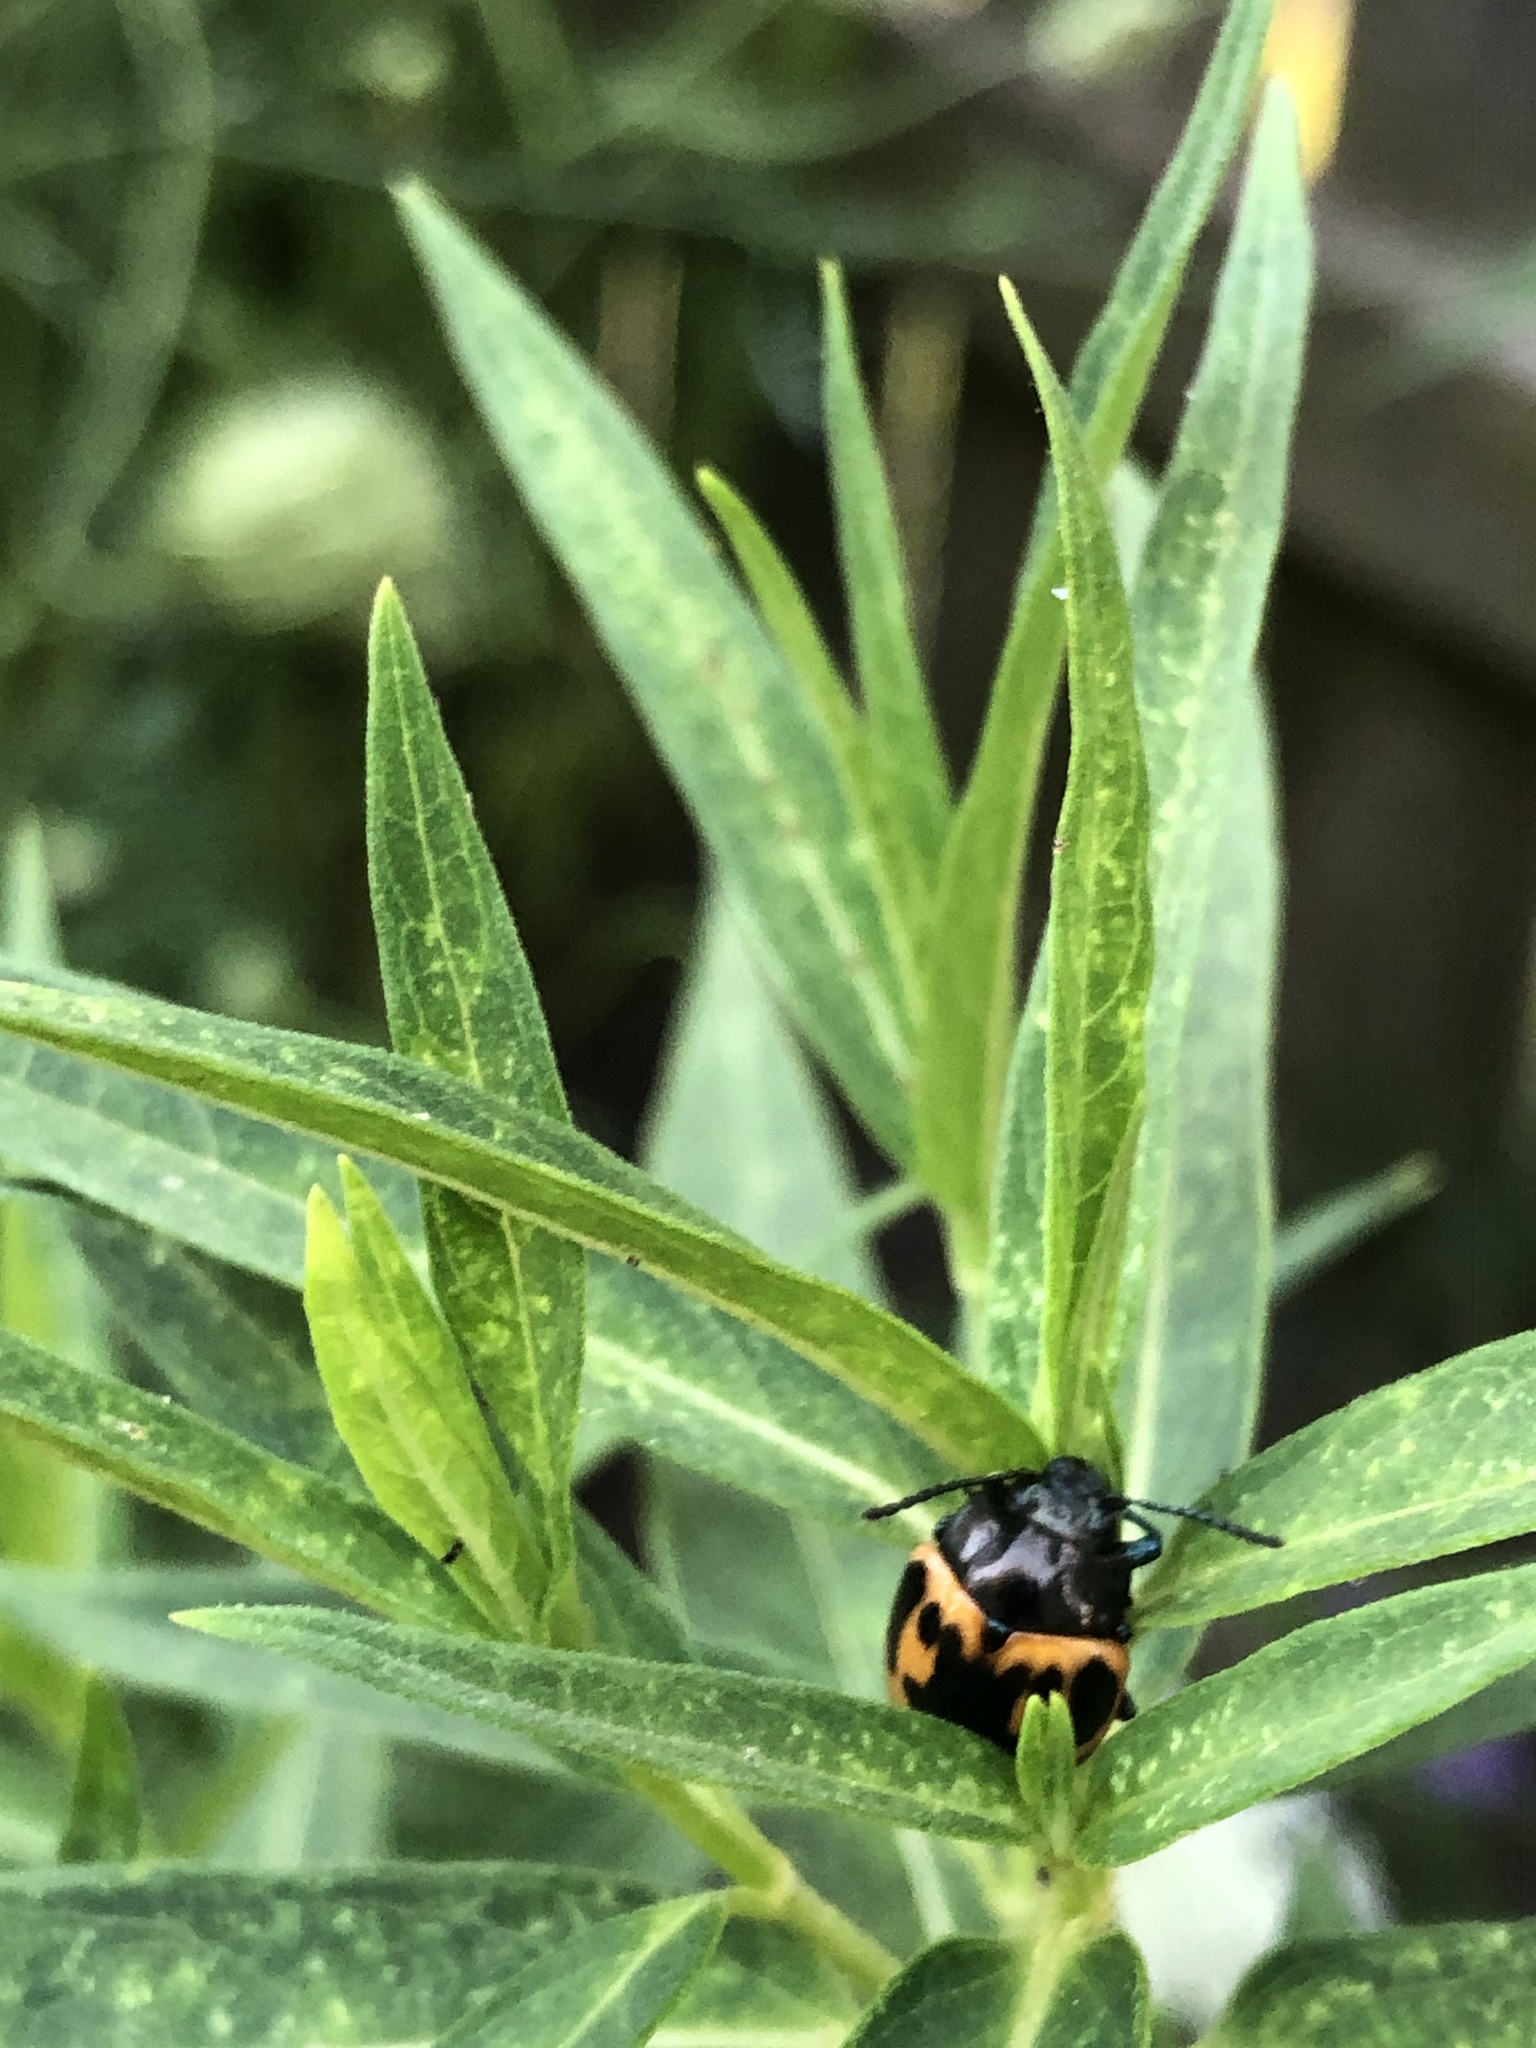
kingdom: Animalia
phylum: Arthropoda
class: Insecta
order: Coleoptera
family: Chrysomelidae
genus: Labidomera
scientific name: Labidomera clivicollis
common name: Swamp milkweed leaf beetle
